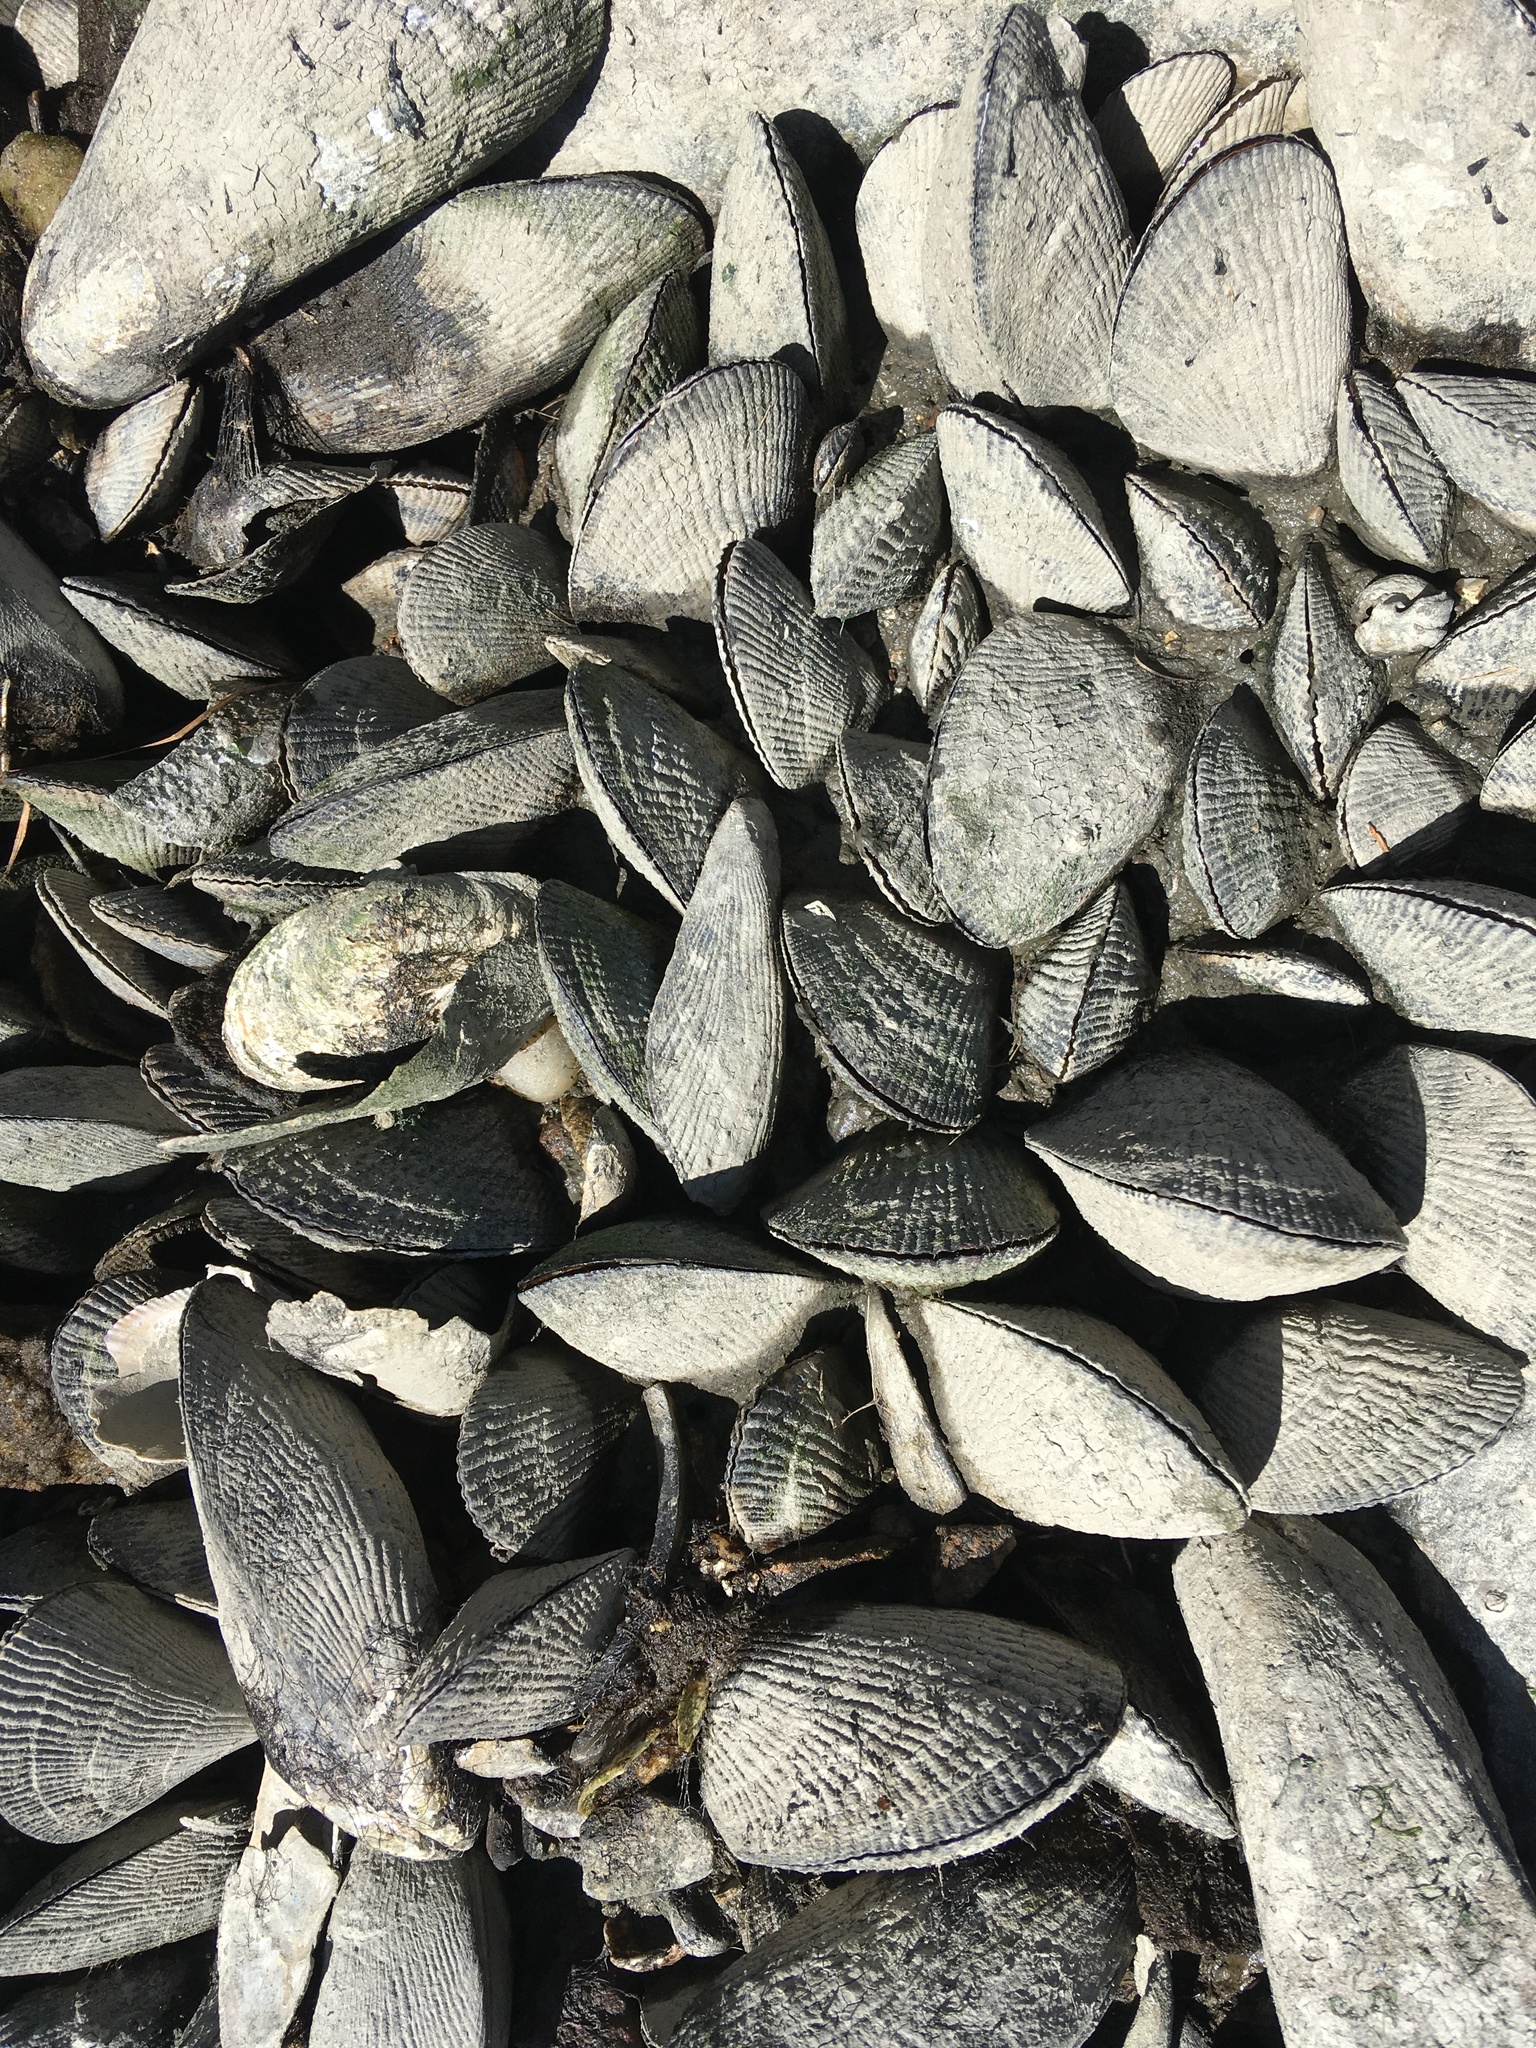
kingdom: Animalia
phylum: Mollusca
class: Bivalvia
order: Mytilida
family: Mytilidae
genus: Geukensia
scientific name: Geukensia demissa
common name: Ribbed mussel
